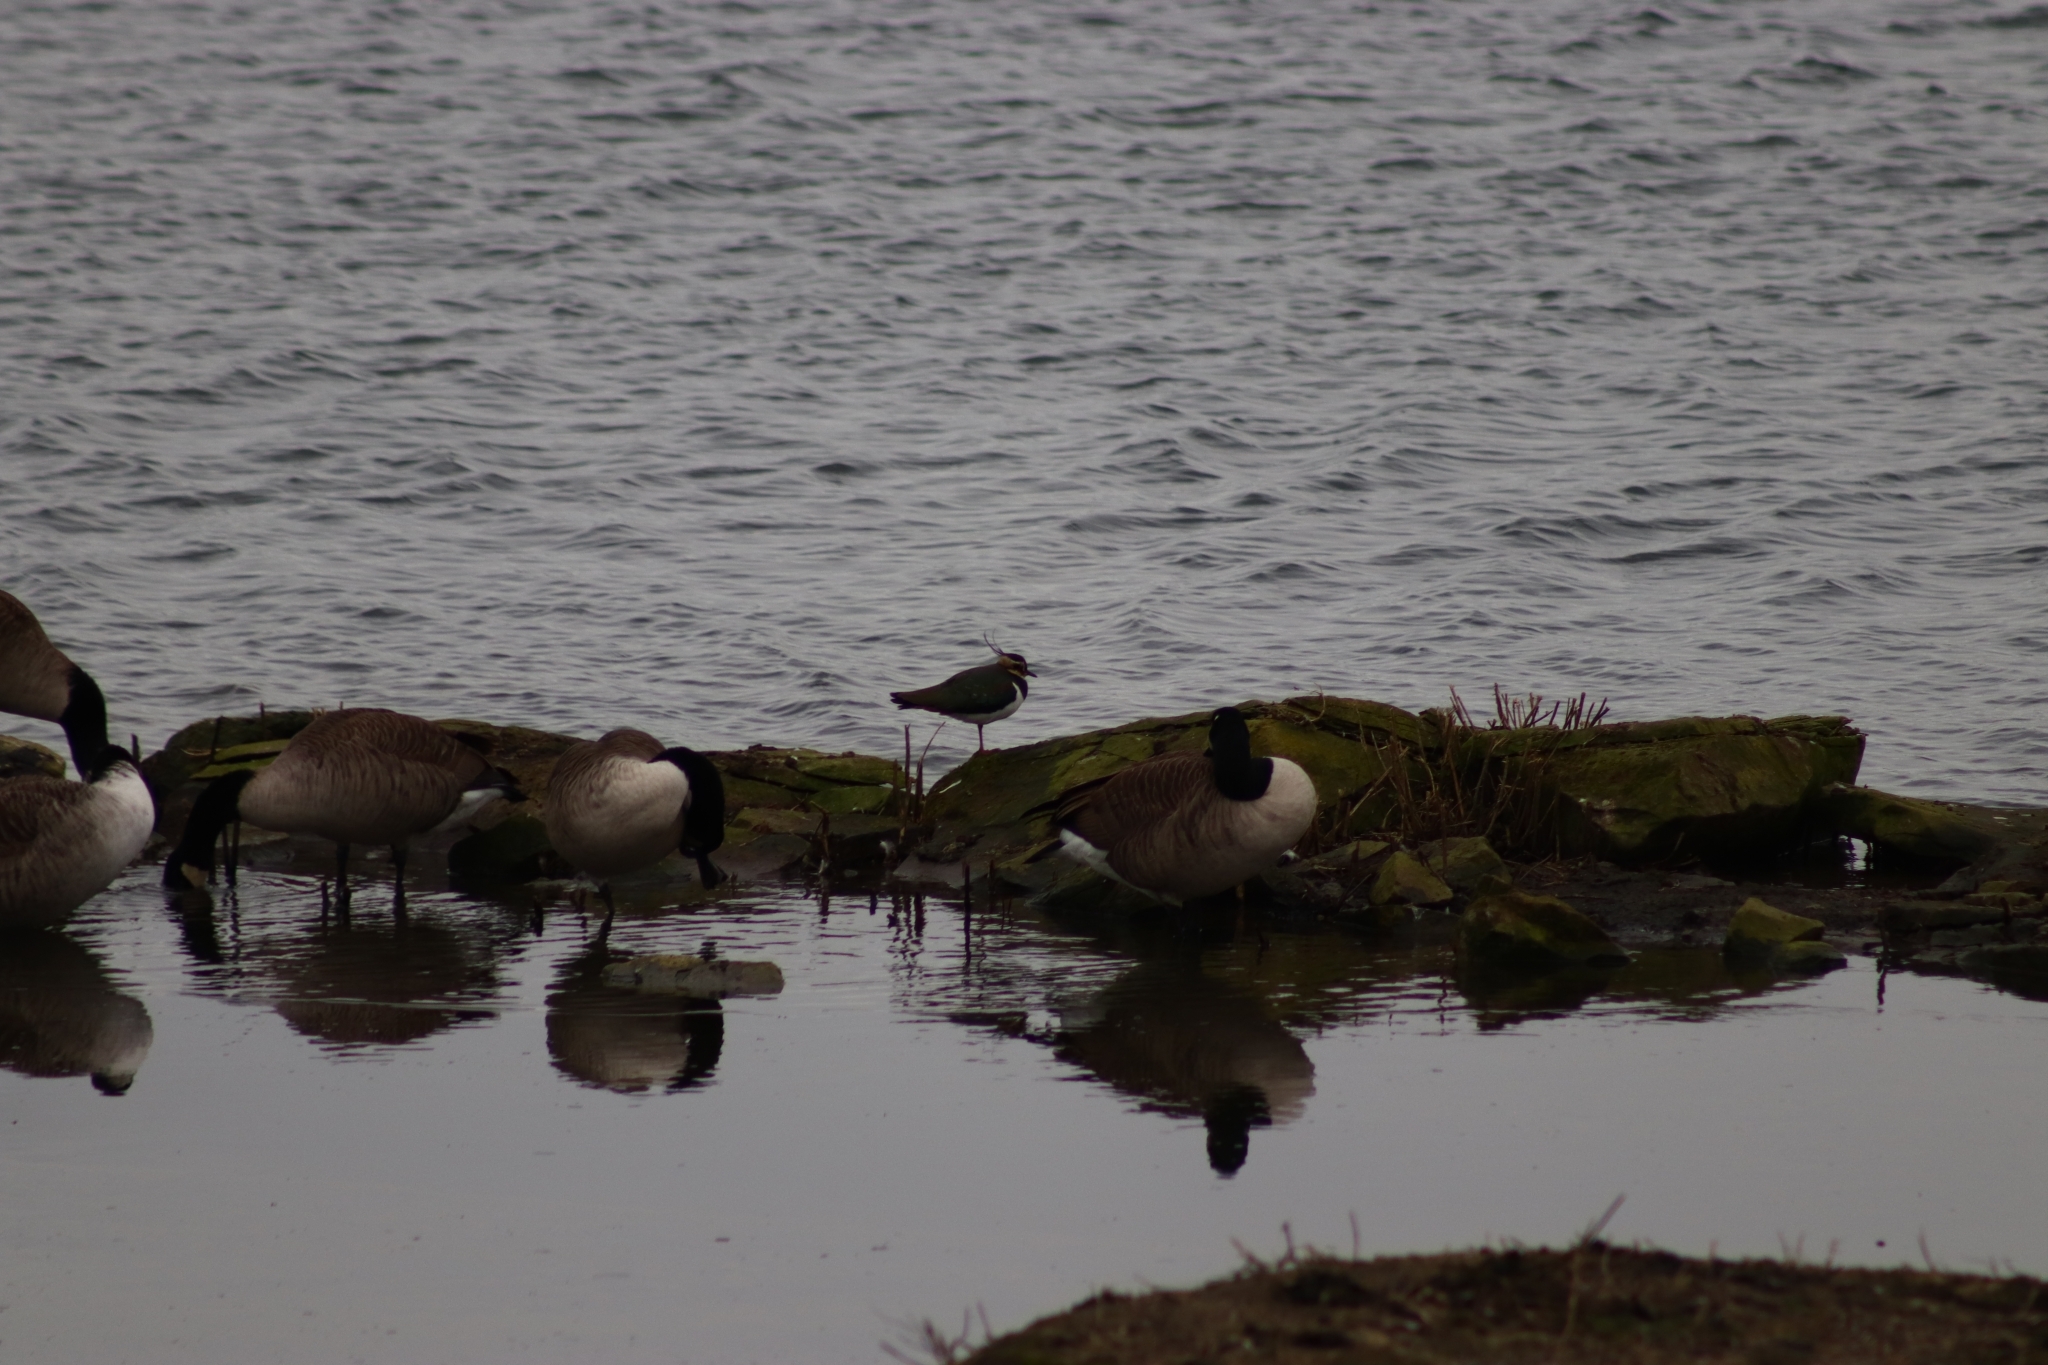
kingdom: Animalia
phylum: Chordata
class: Aves
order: Charadriiformes
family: Charadriidae
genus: Vanellus
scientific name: Vanellus vanellus
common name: Northern lapwing
